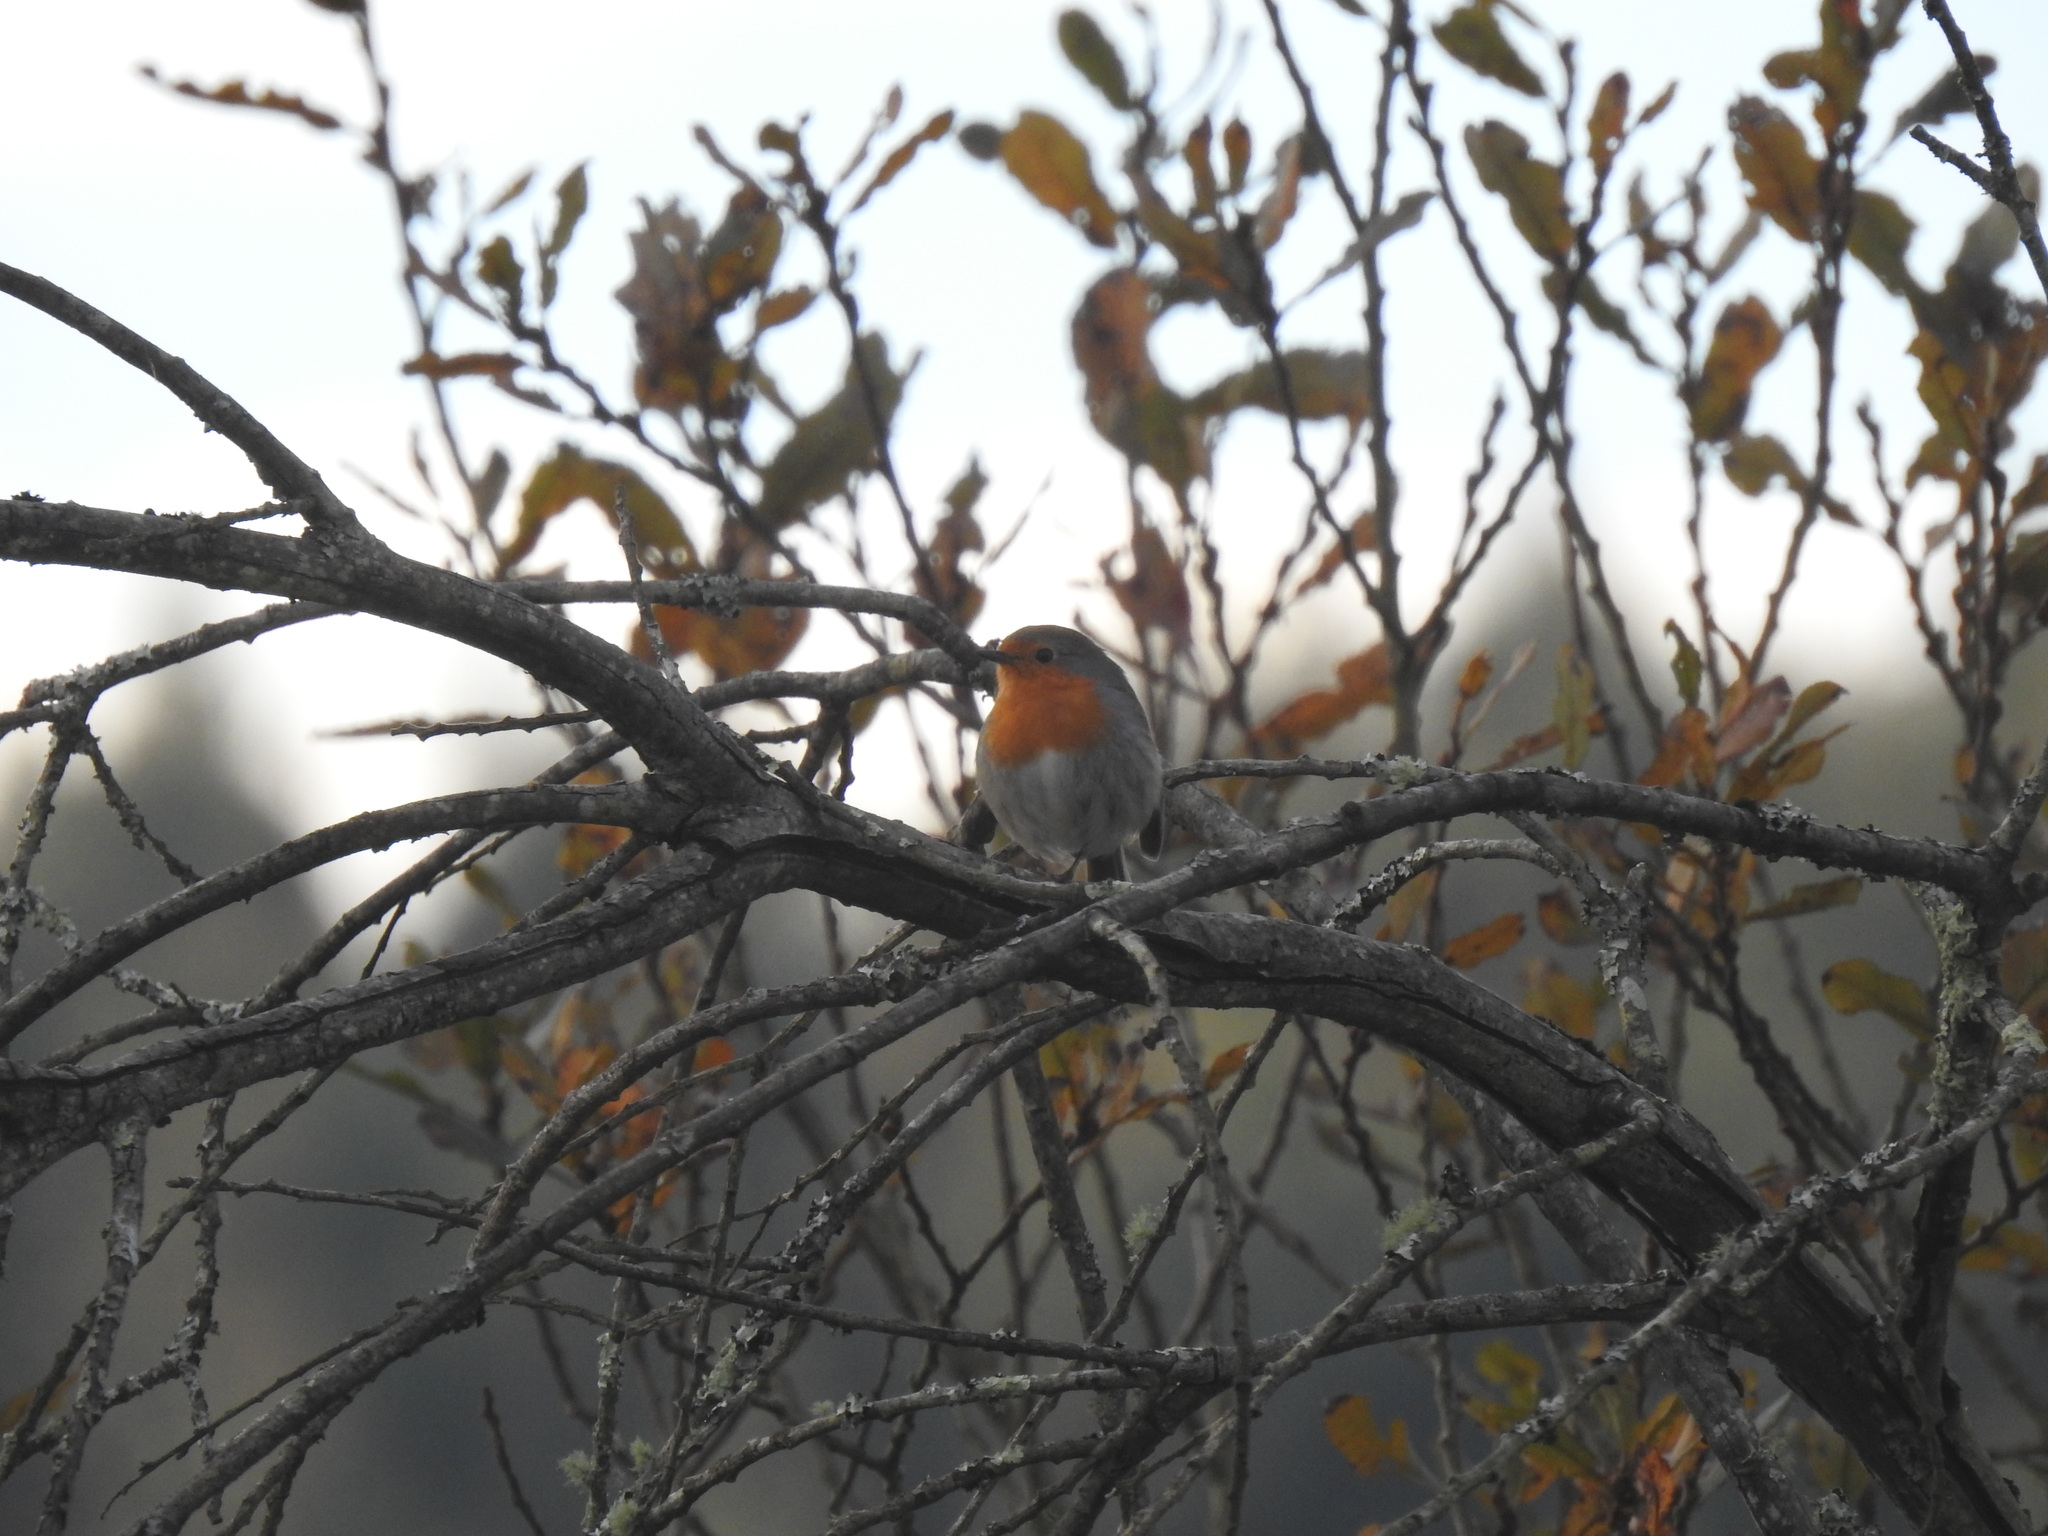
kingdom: Animalia
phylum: Chordata
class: Aves
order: Passeriformes
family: Muscicapidae
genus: Erithacus
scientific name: Erithacus rubecula
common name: European robin
